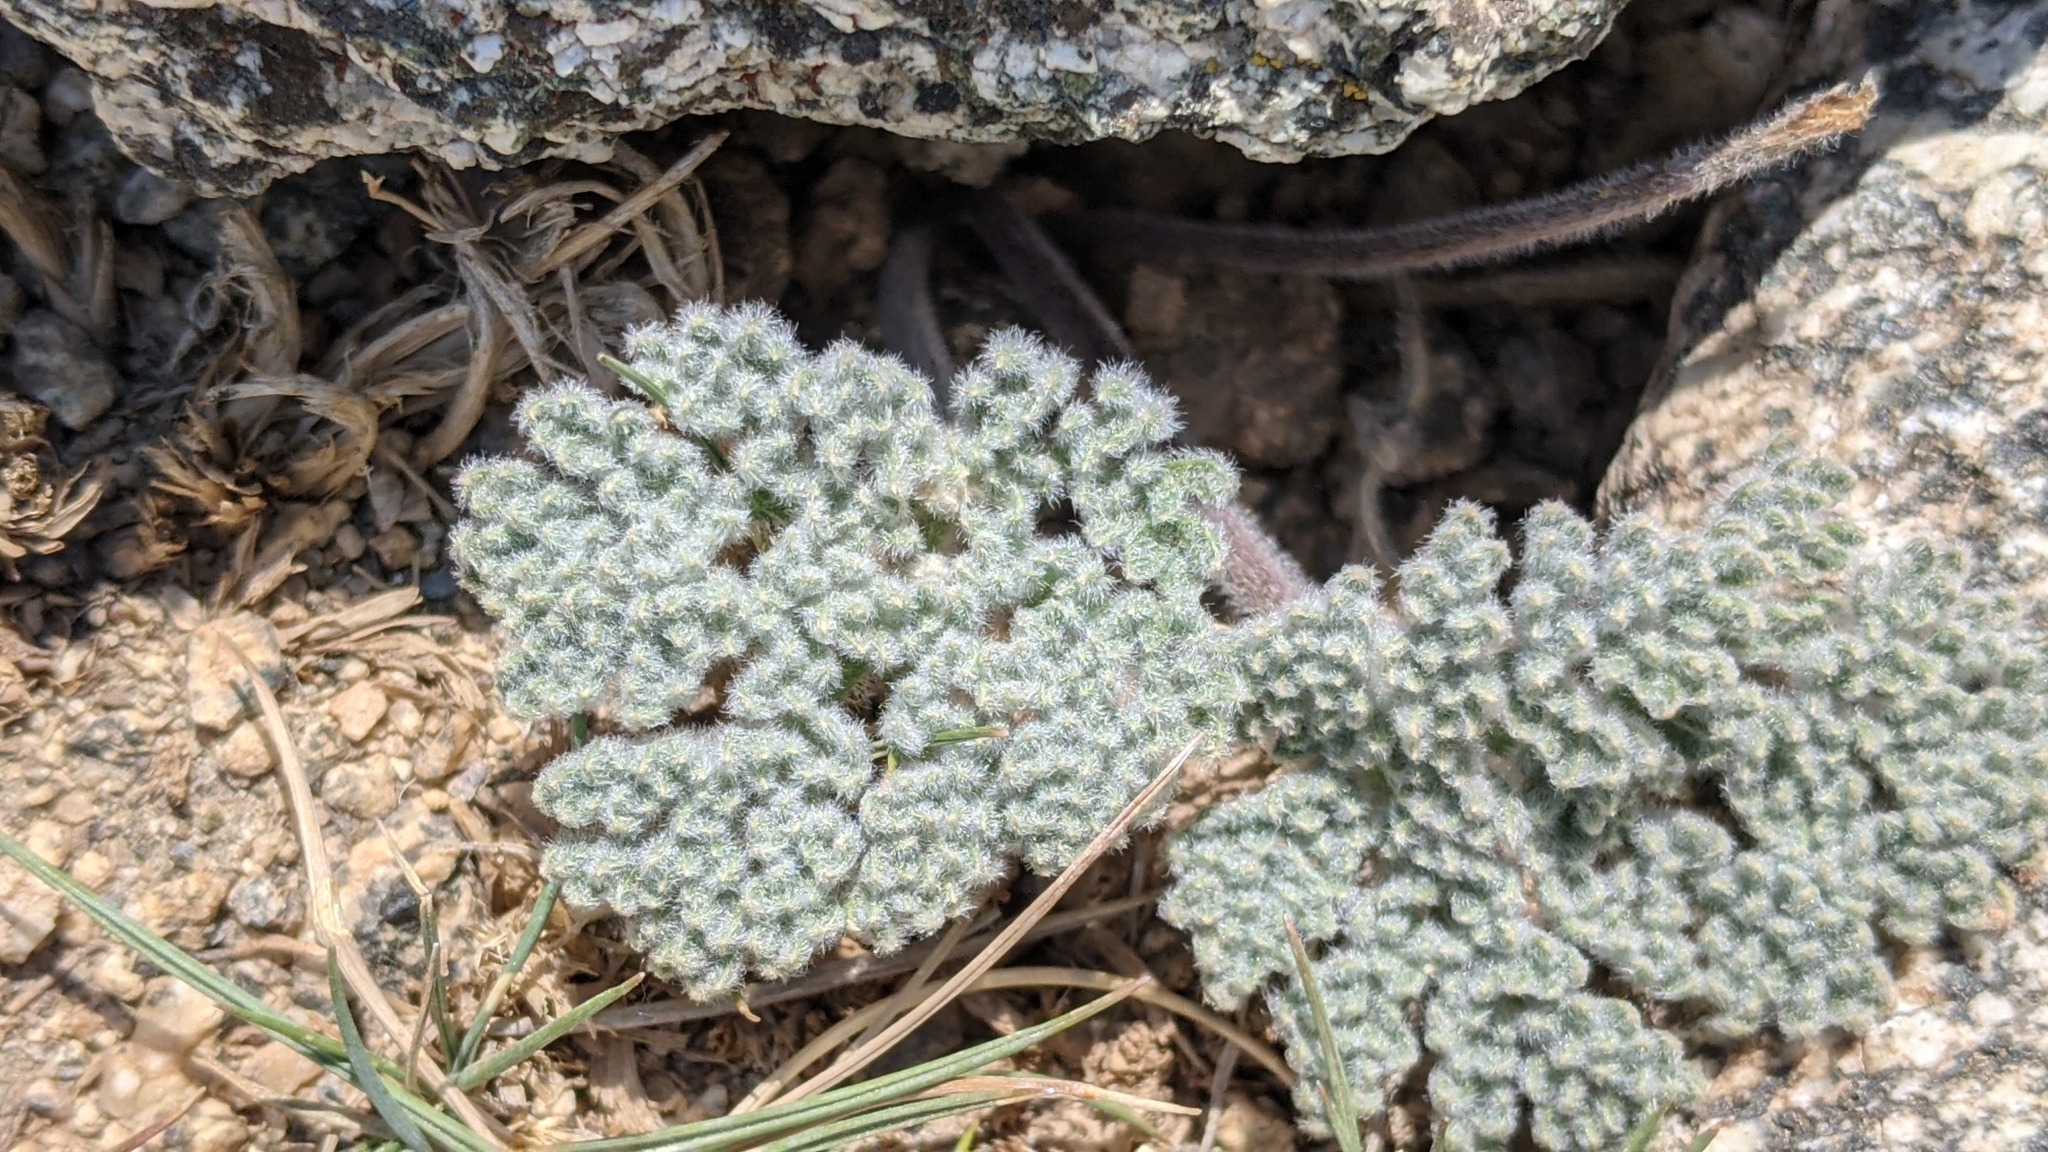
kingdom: Plantae
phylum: Tracheophyta
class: Magnoliopsida
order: Apiales
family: Apiaceae
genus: Oreonana
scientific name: Oreonana vestita
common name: Woolly mountain-parsley
